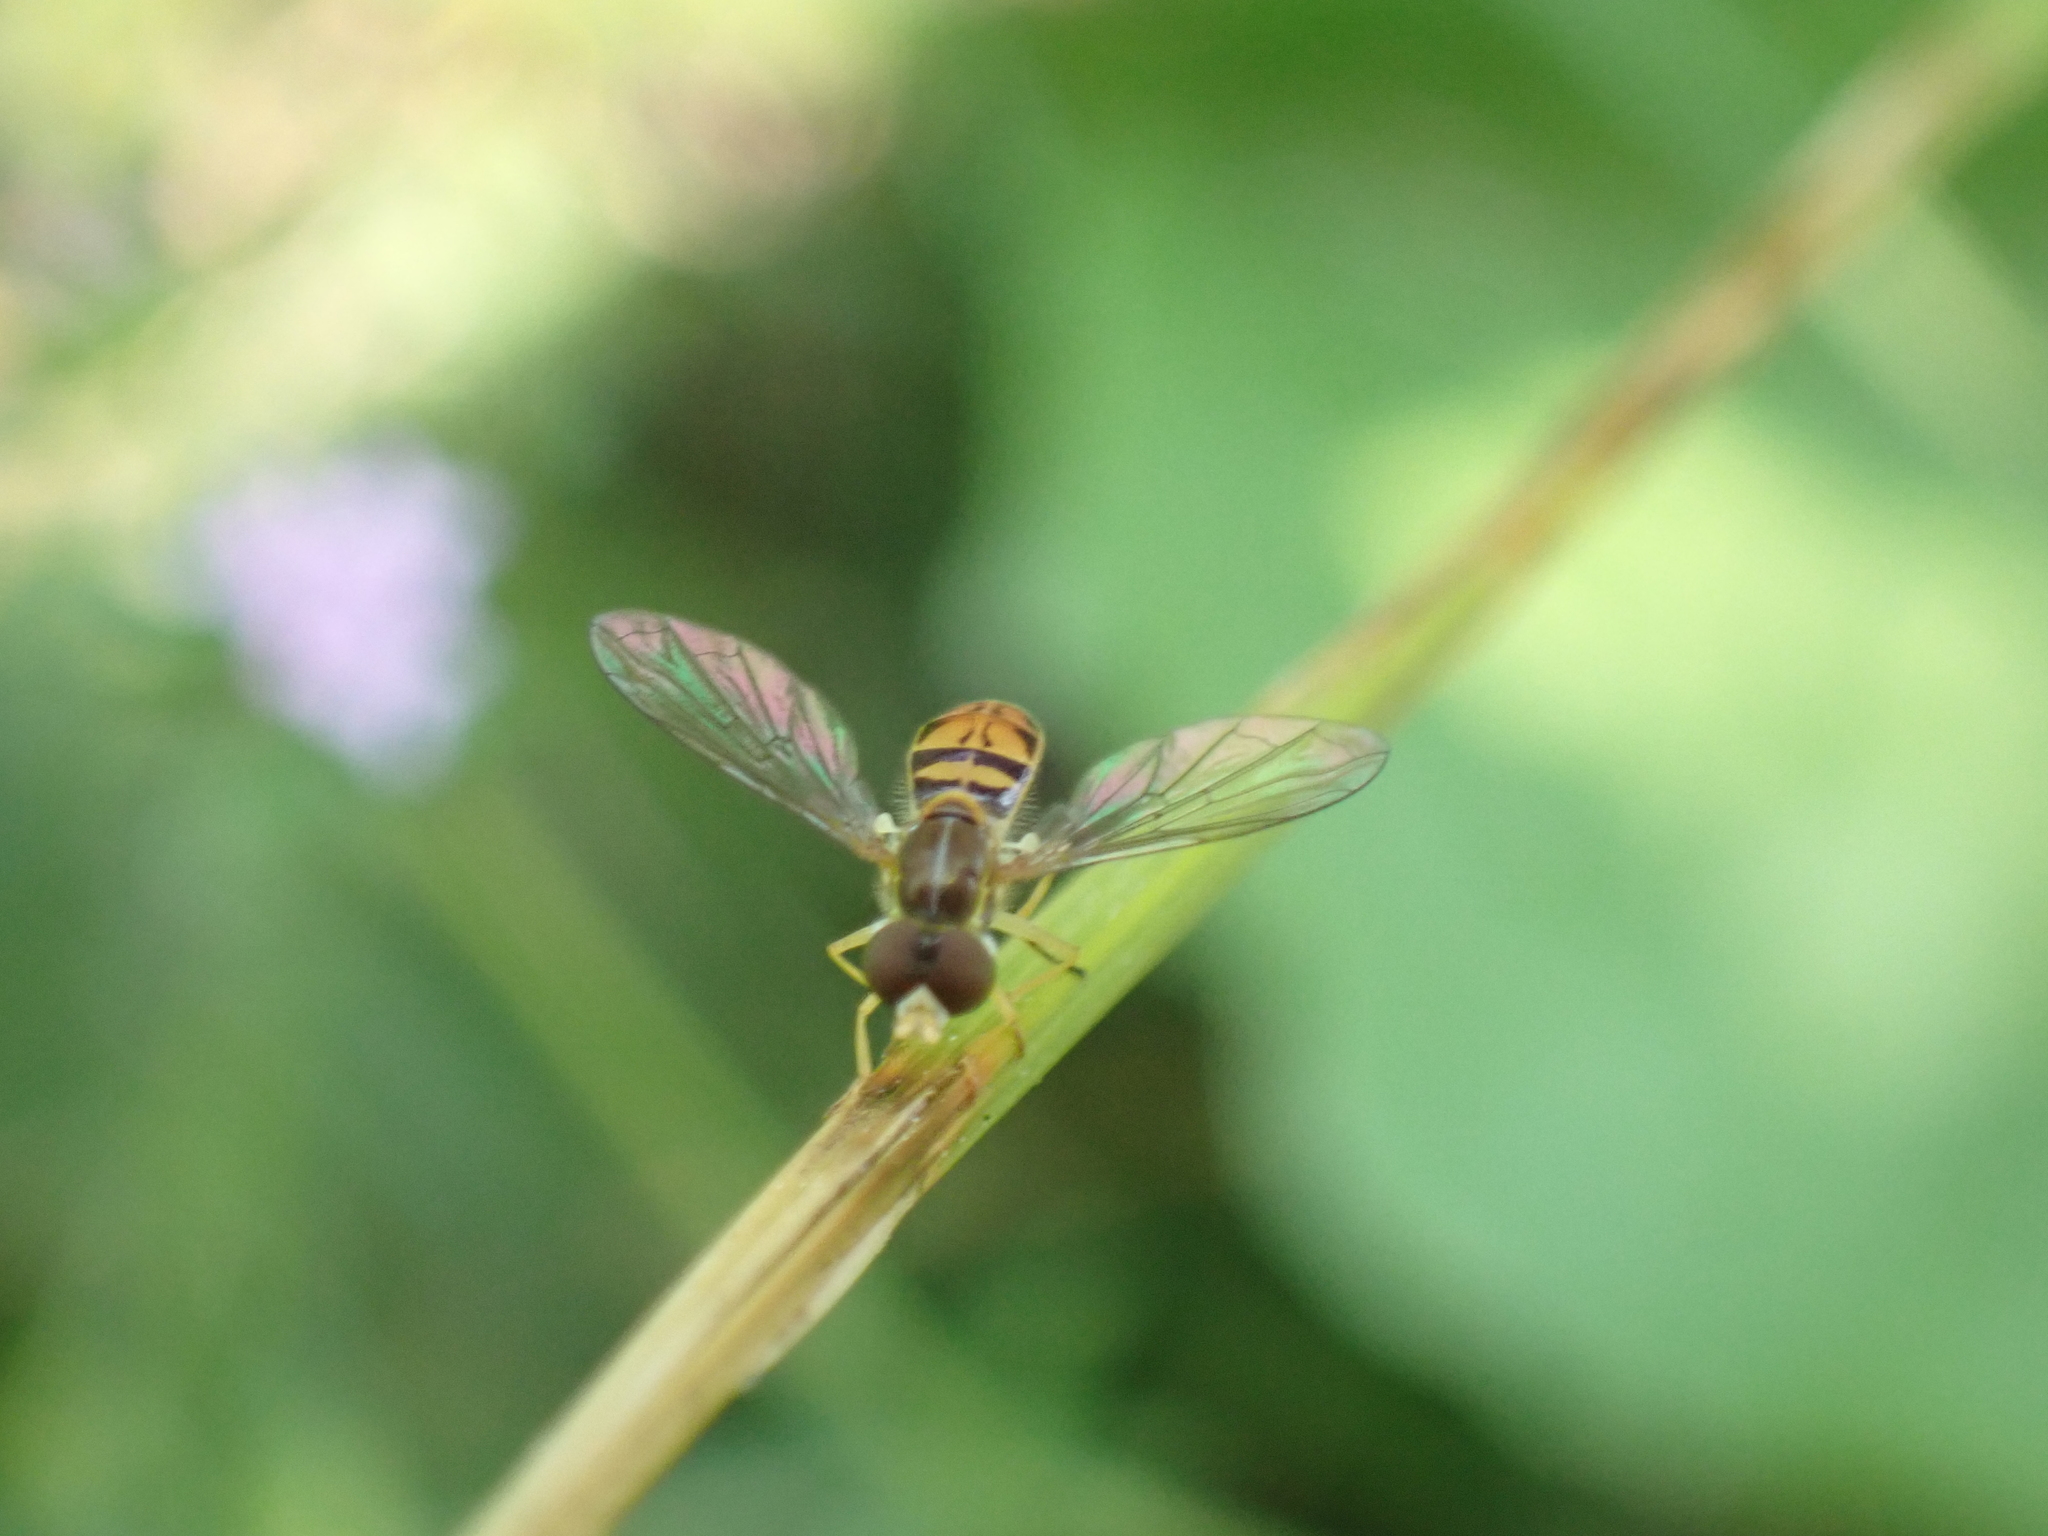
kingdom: Animalia
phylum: Arthropoda
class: Insecta
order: Diptera
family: Syrphidae
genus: Toxomerus
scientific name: Toxomerus marginatus
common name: Syrphid fly
